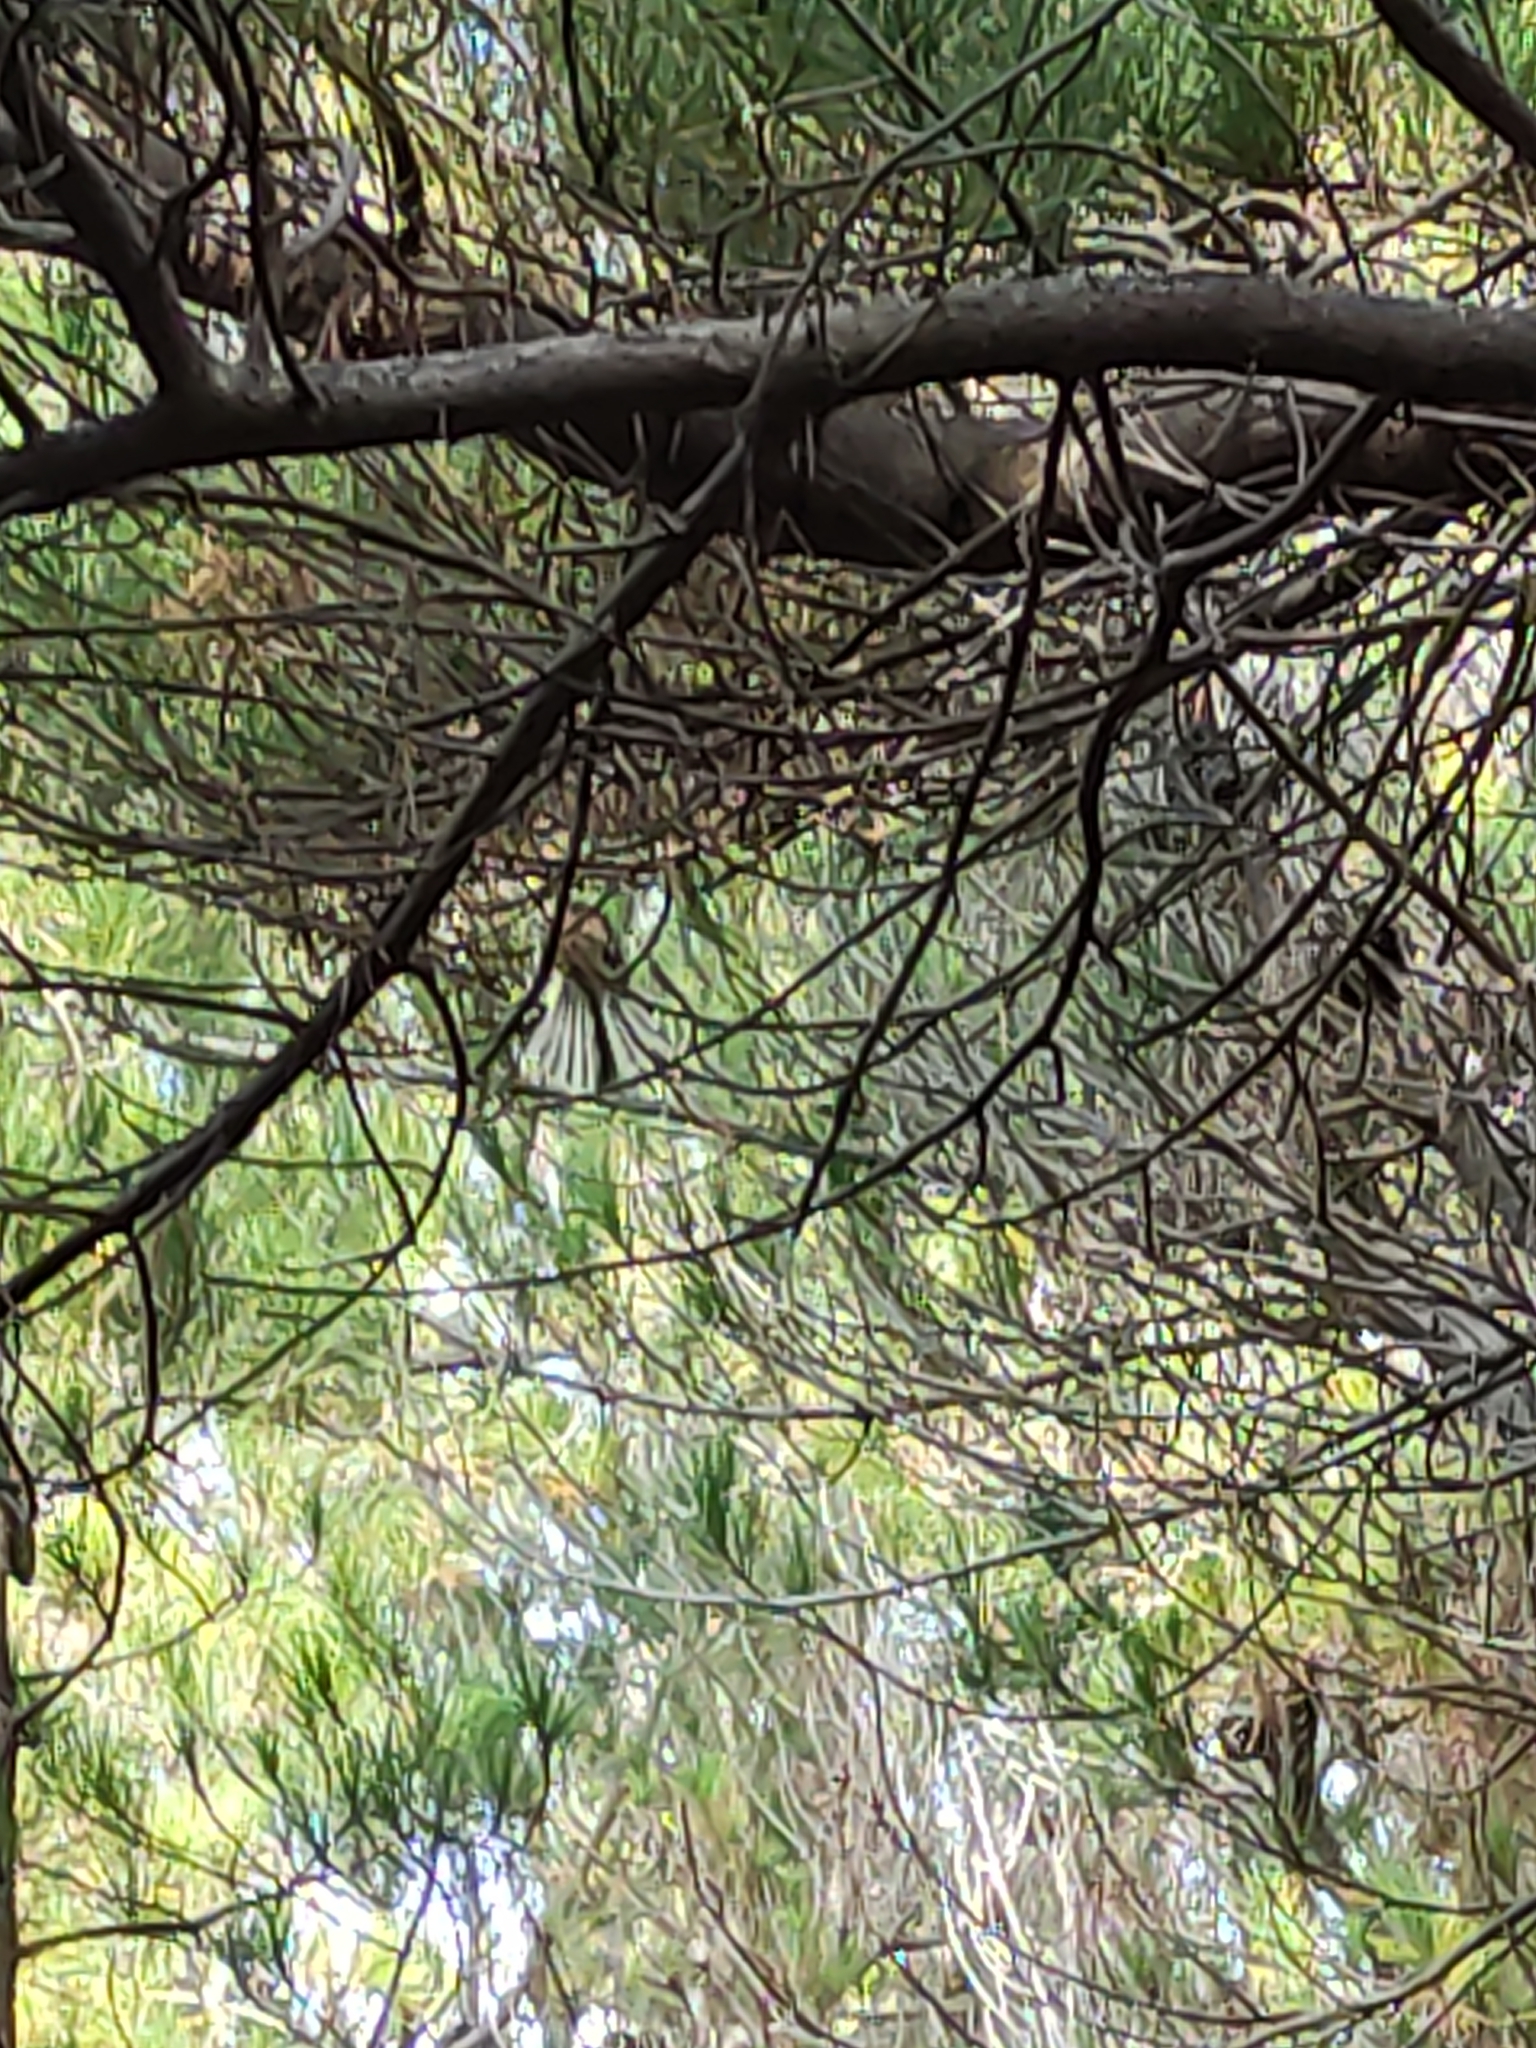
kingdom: Animalia
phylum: Chordata
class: Aves
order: Passeriformes
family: Rhipiduridae
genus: Rhipidura
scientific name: Rhipidura fuliginosa
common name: New zealand fantail
